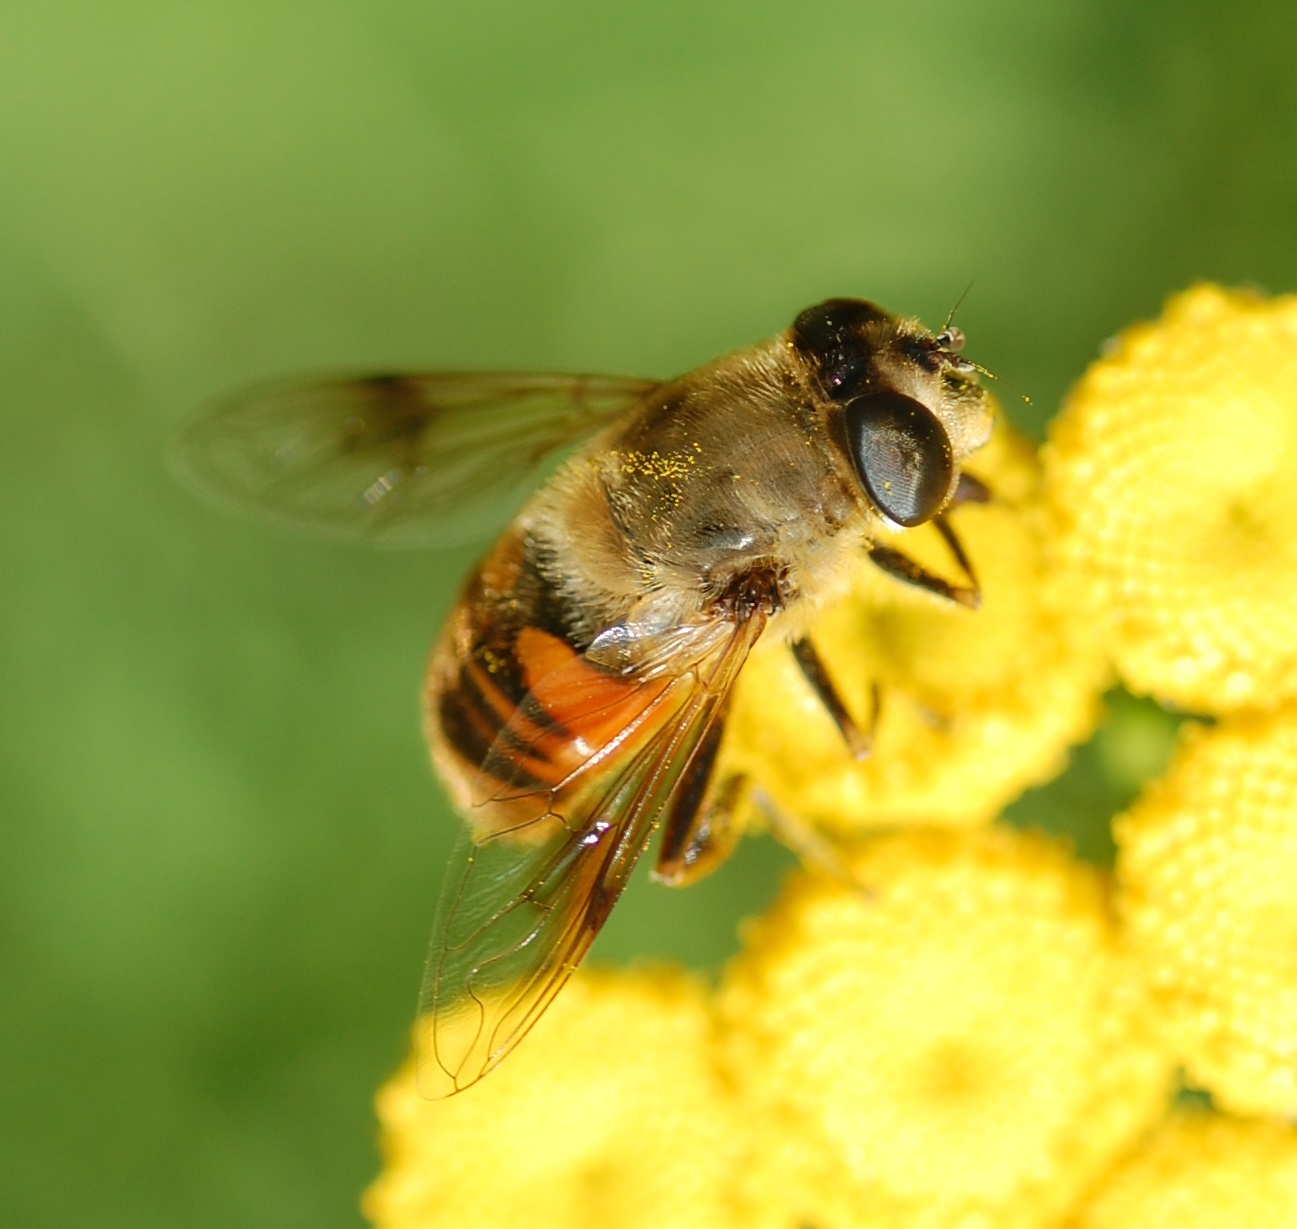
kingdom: Animalia
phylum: Arthropoda
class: Insecta
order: Diptera
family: Syrphidae
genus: Eristalis
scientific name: Eristalis tenax
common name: Drone fly
